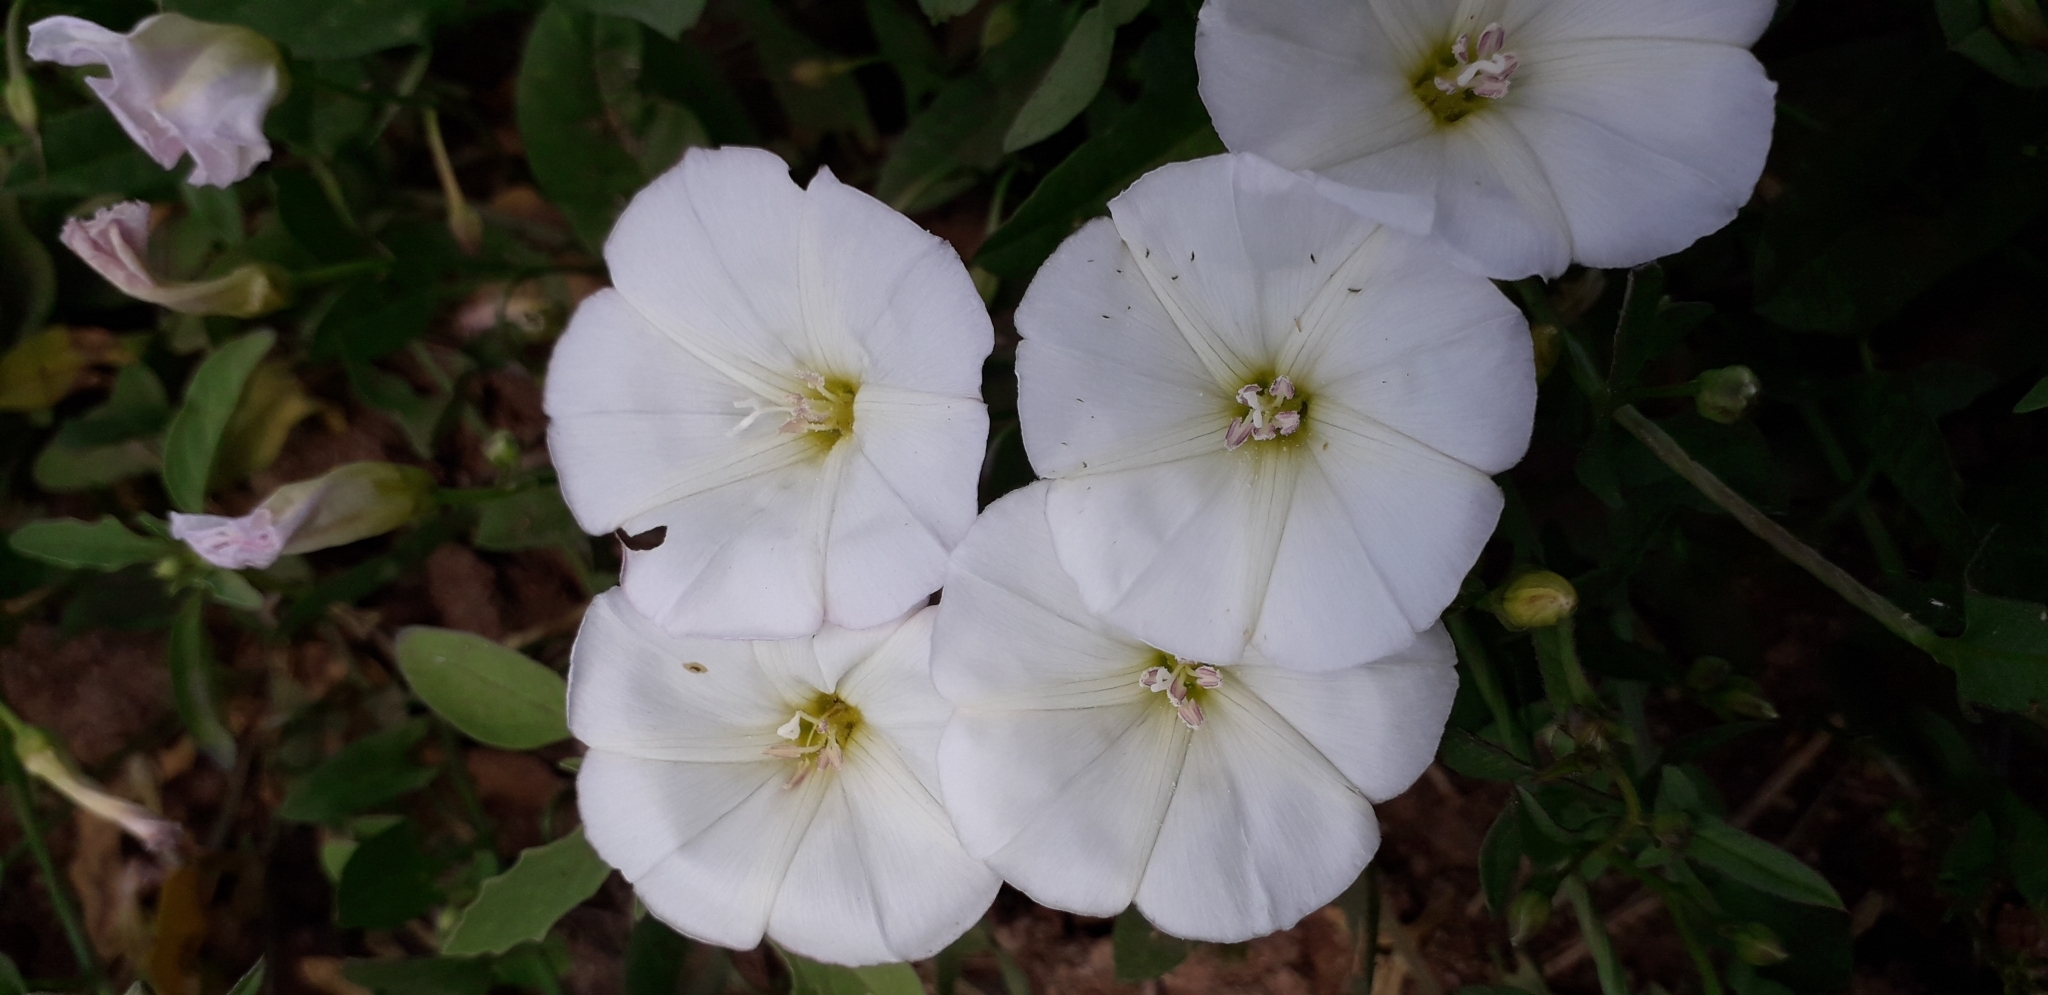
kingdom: Plantae
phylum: Tracheophyta
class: Magnoliopsida
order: Solanales
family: Convolvulaceae
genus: Convolvulus
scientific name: Convolvulus arvensis
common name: Field bindweed
